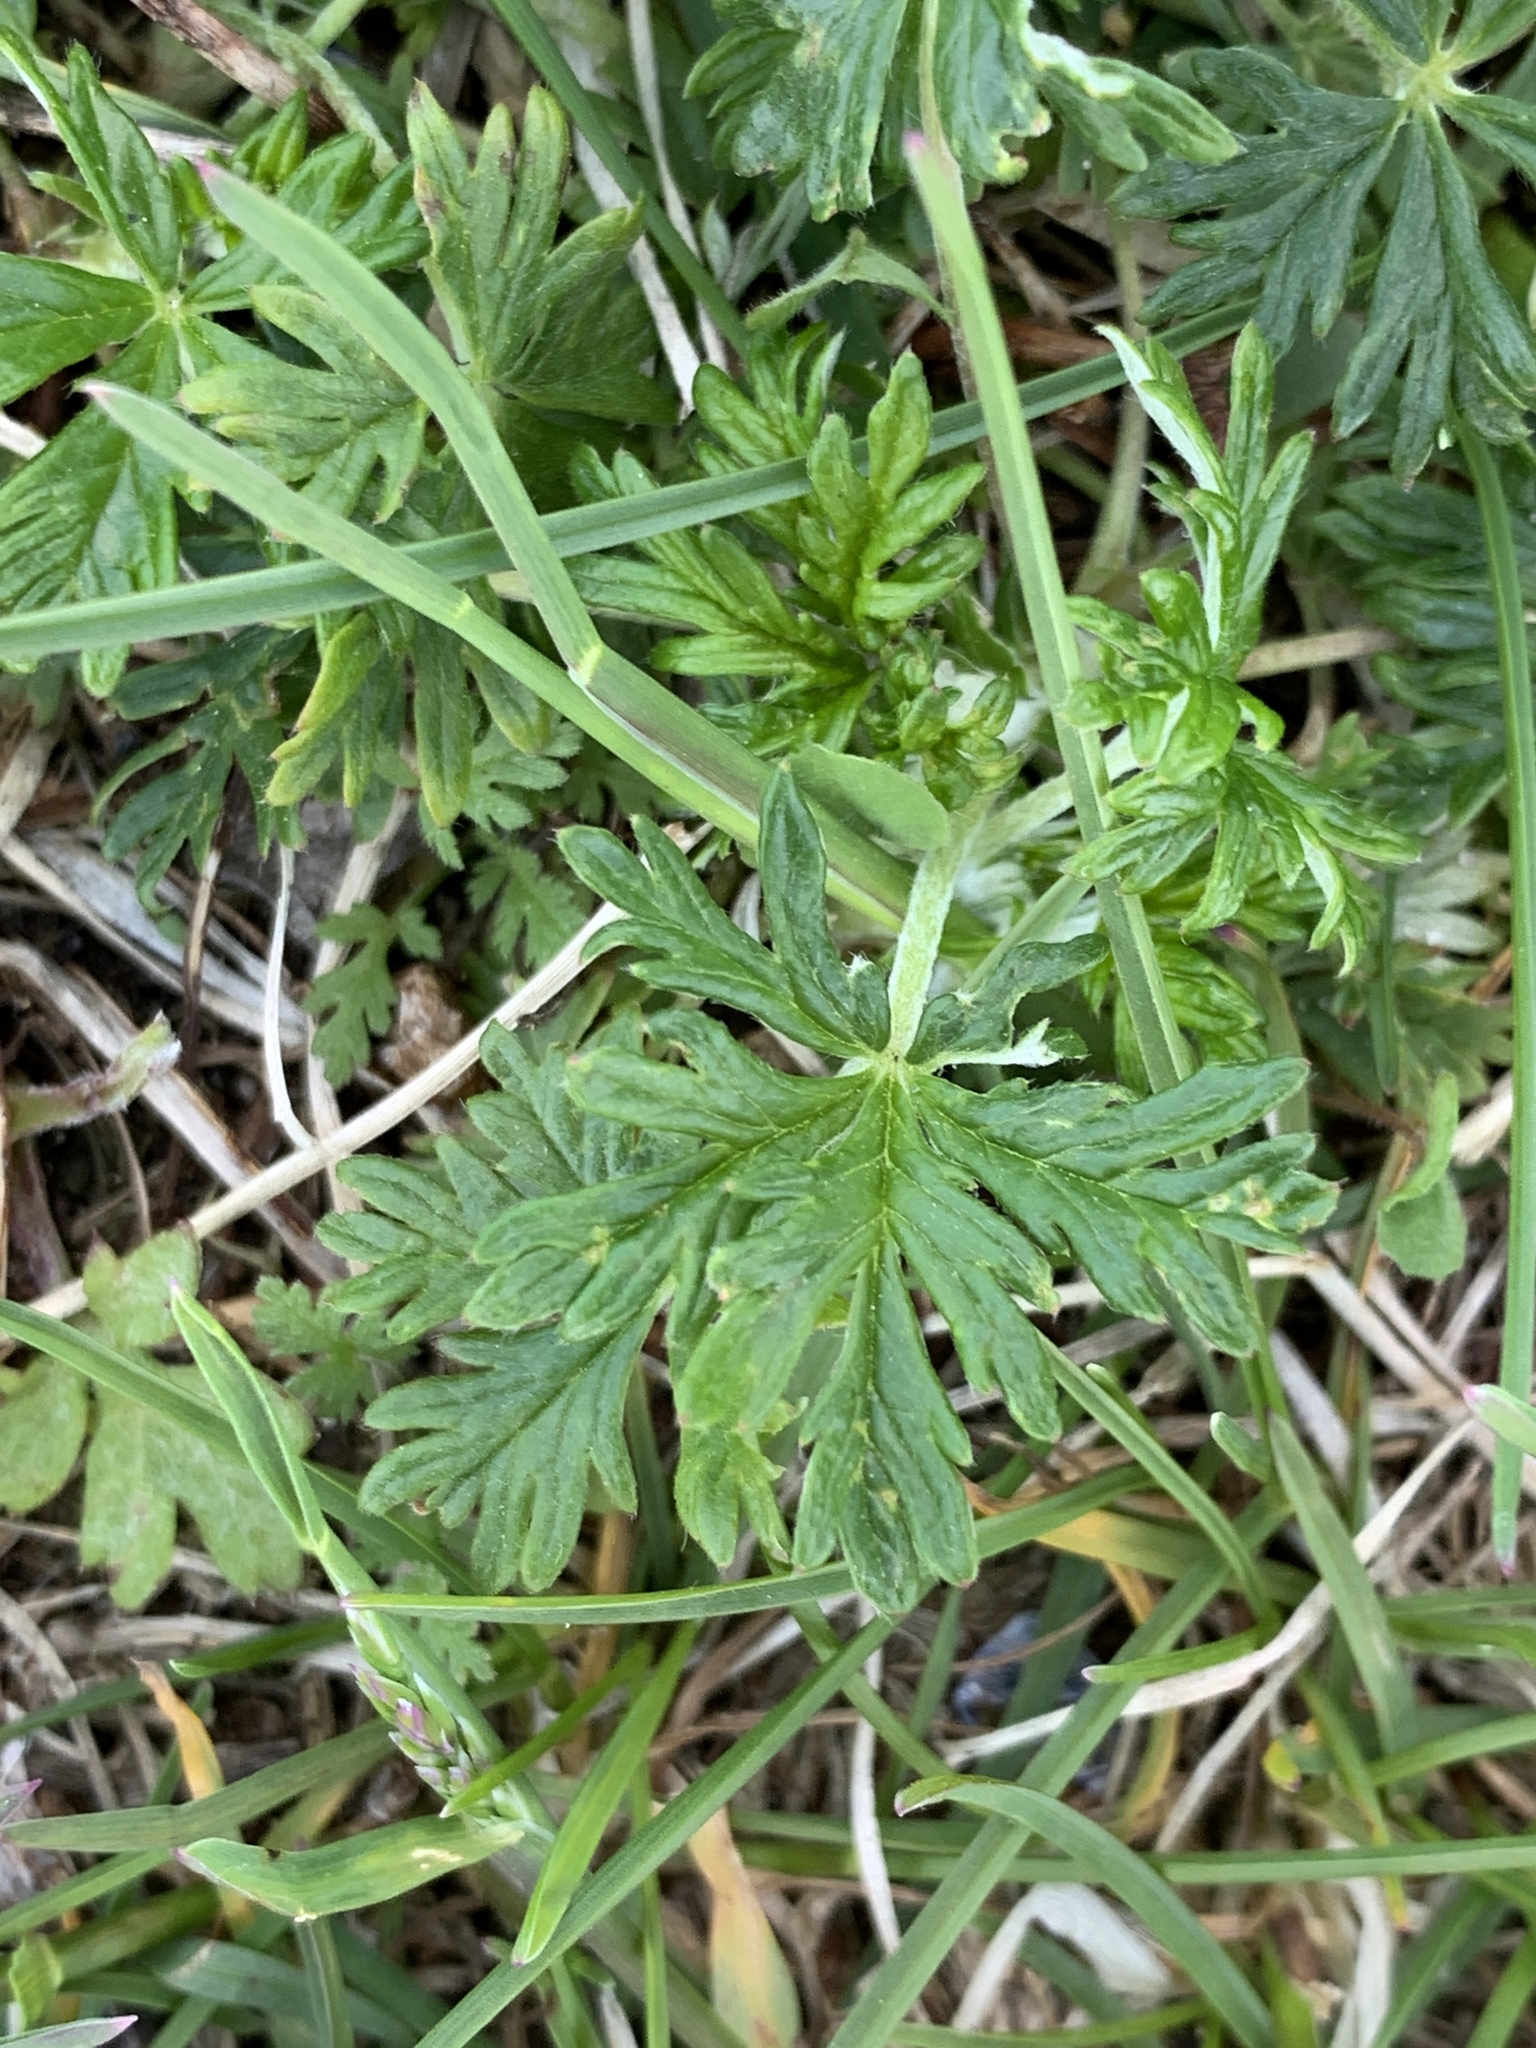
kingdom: Plantae
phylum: Tracheophyta
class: Magnoliopsida
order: Rosales
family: Rosaceae
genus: Potentilla
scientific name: Potentilla argentea
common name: Hoary cinquefoil
